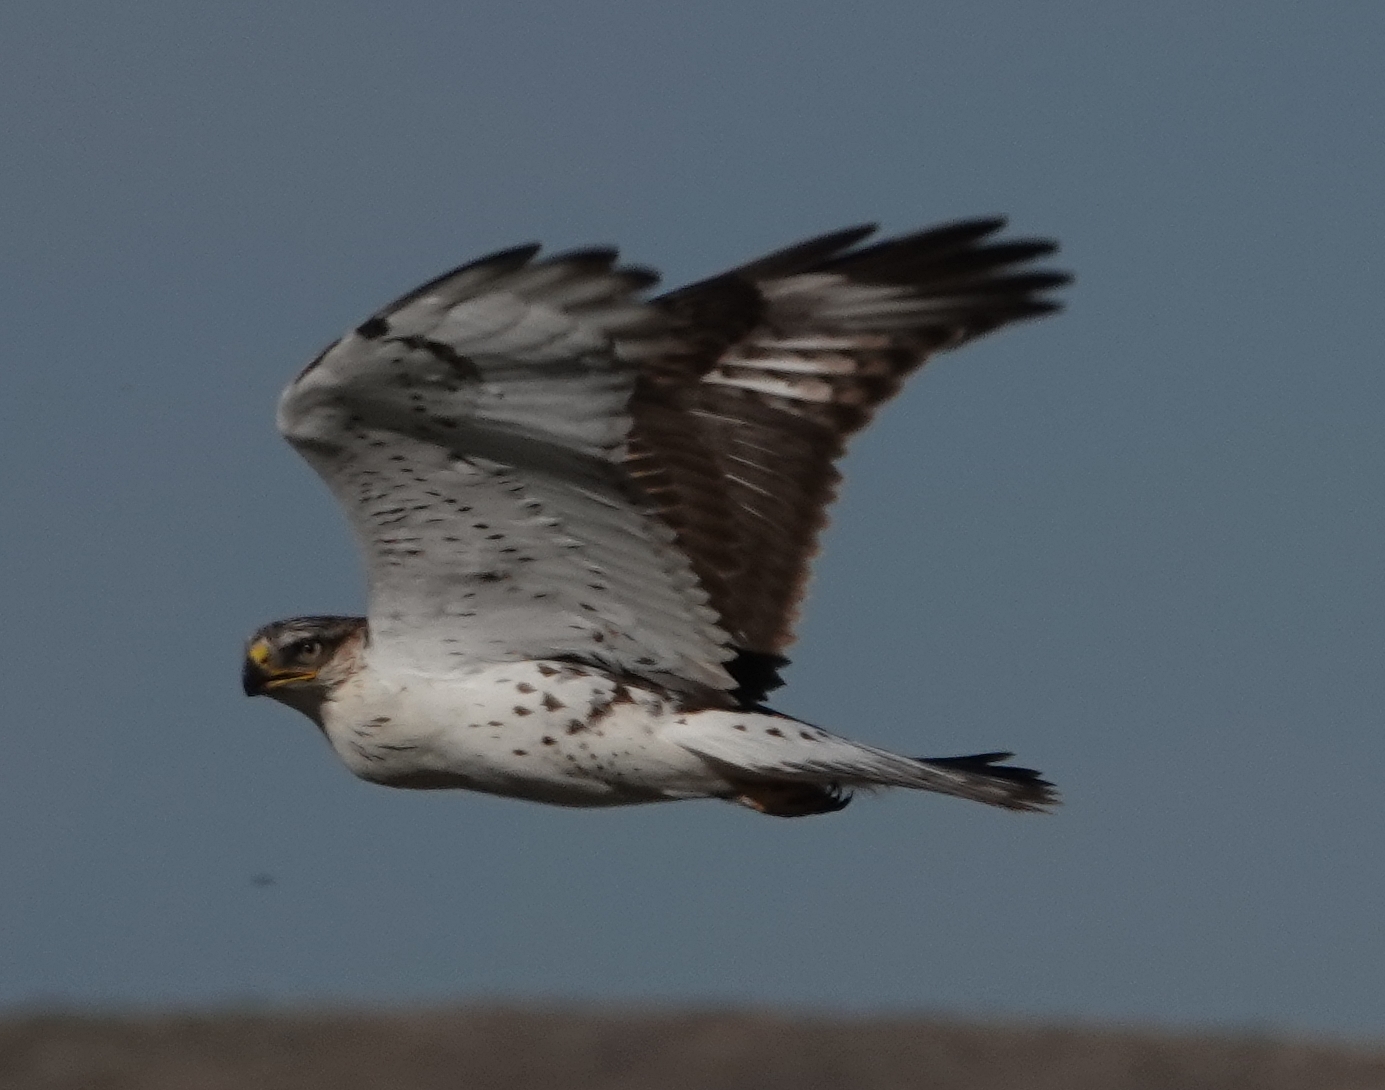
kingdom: Animalia
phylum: Chordata
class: Aves
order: Accipitriformes
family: Accipitridae
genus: Buteo
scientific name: Buteo regalis
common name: Ferruginous hawk
